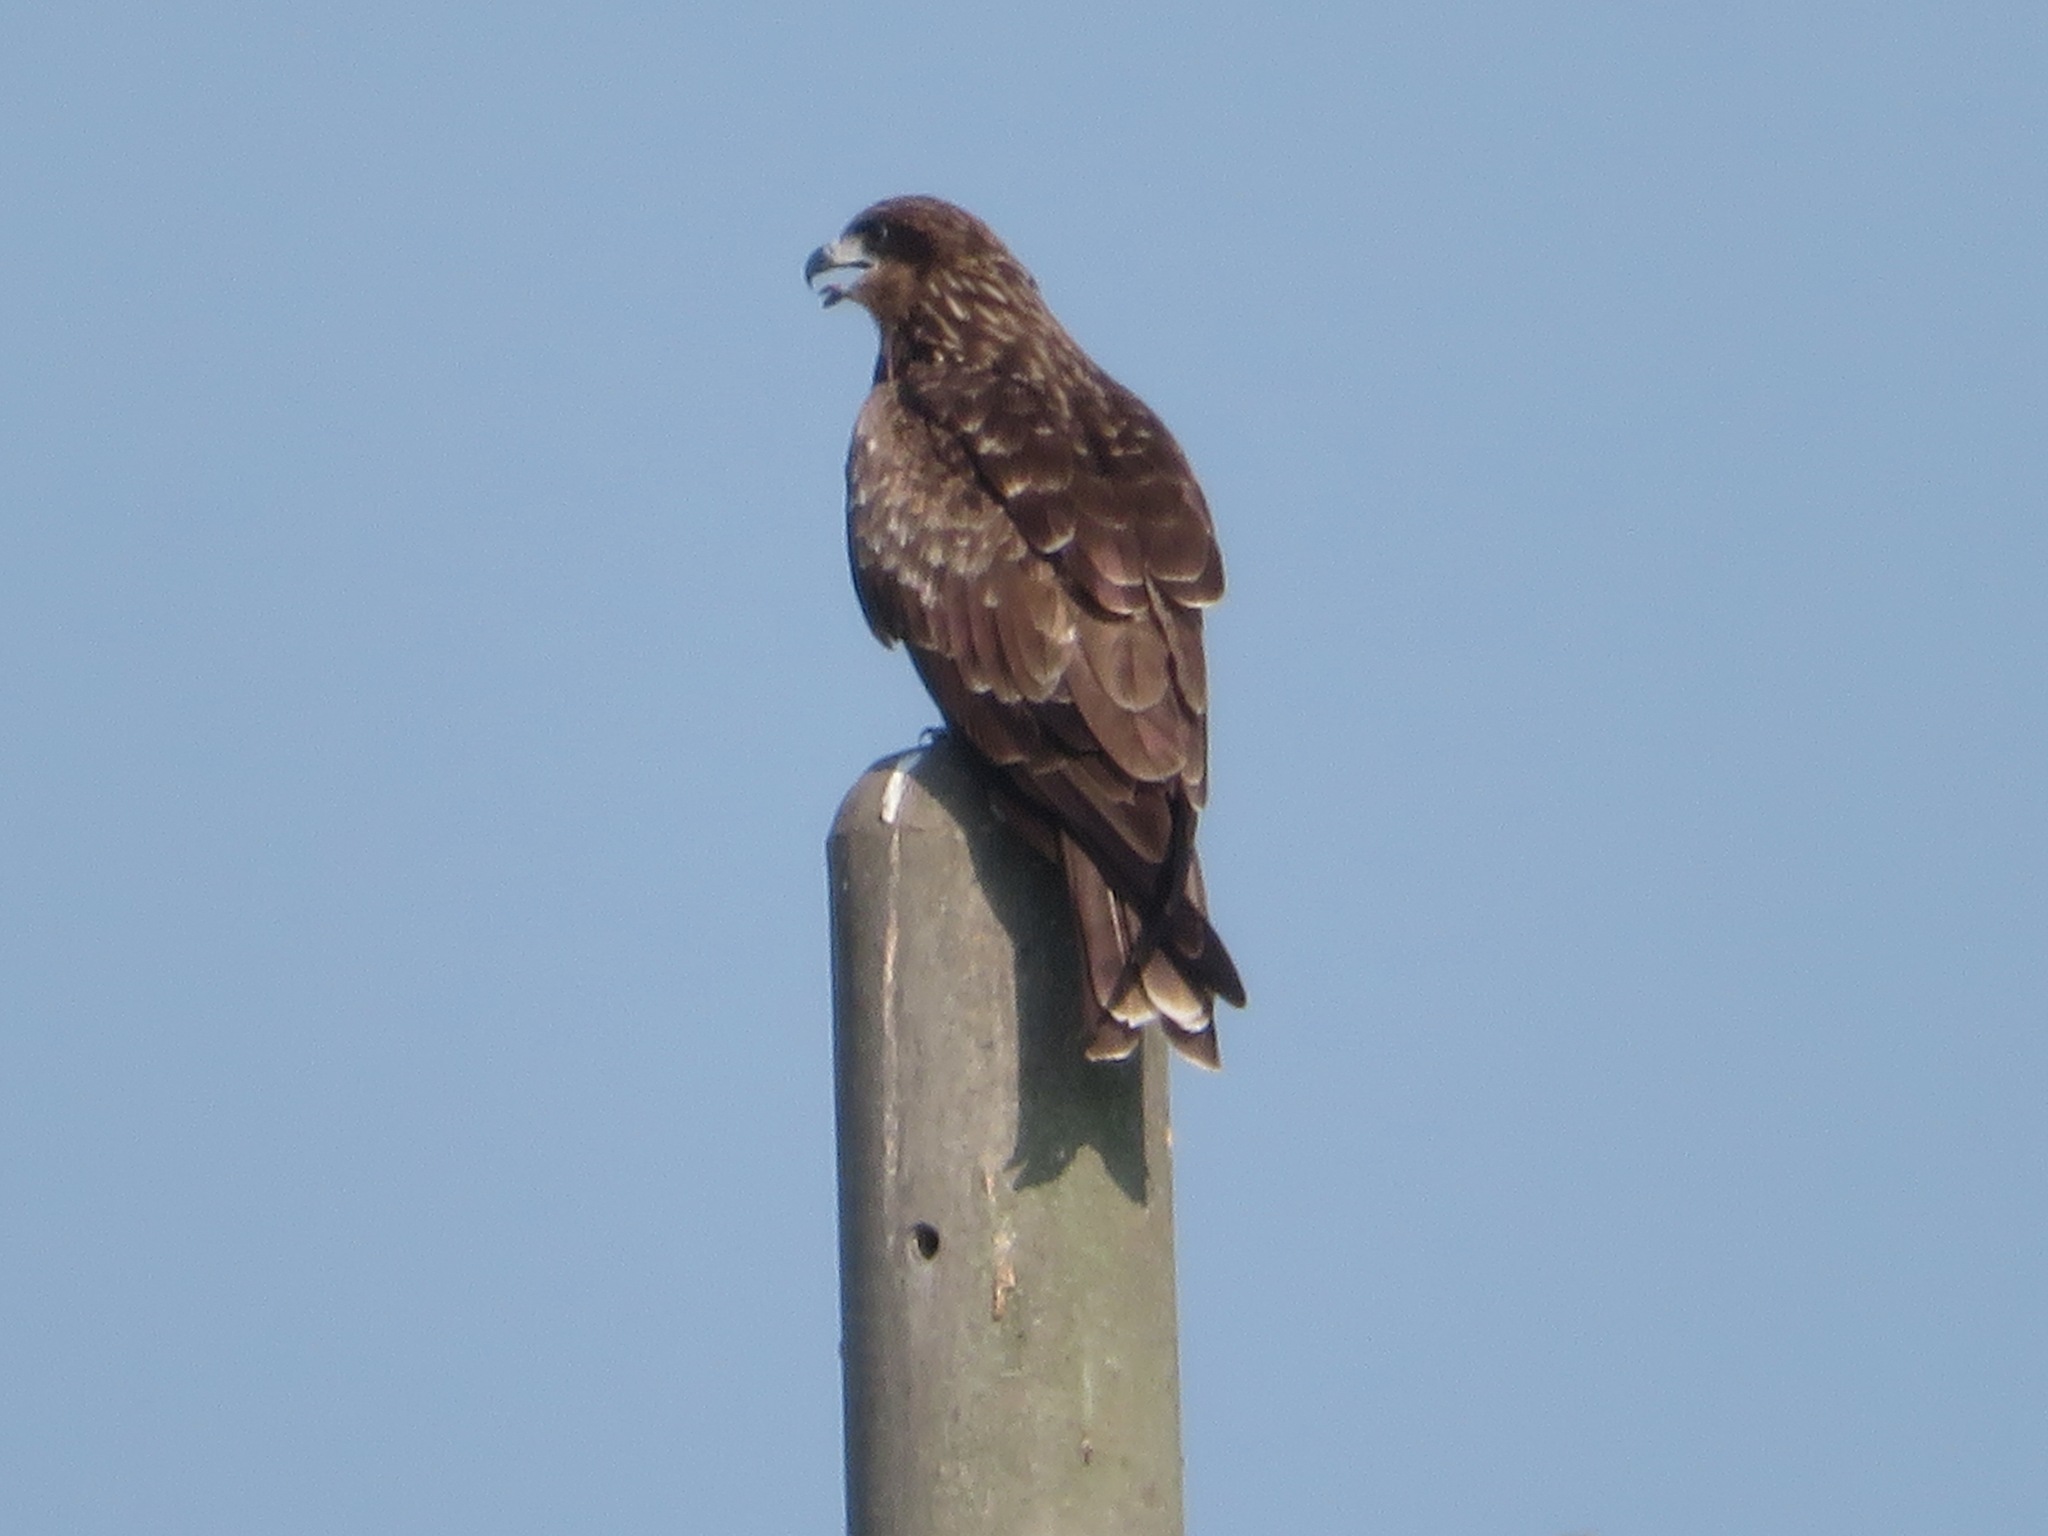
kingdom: Animalia
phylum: Chordata
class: Aves
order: Accipitriformes
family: Accipitridae
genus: Milvus
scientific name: Milvus migrans
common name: Black kite
